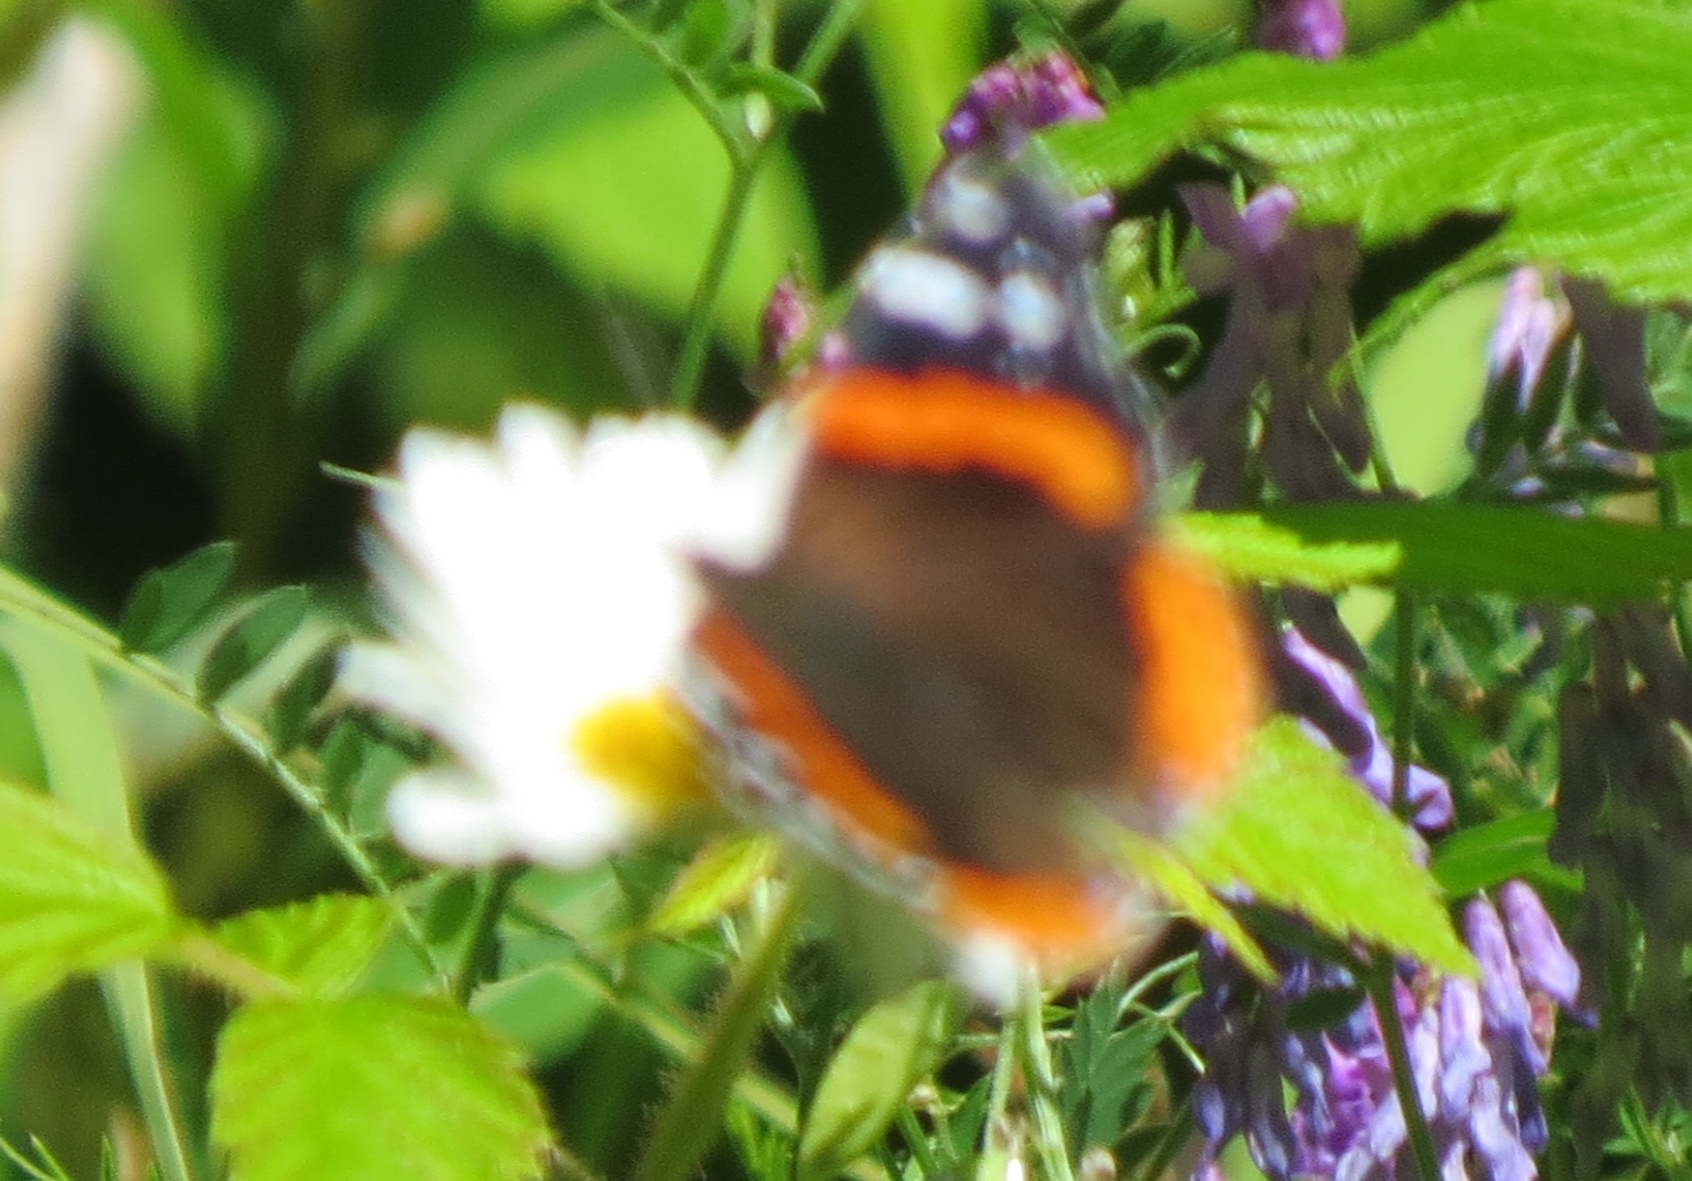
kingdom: Animalia
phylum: Arthropoda
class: Insecta
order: Lepidoptera
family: Nymphalidae
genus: Vanessa
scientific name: Vanessa atalanta
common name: Red admiral
